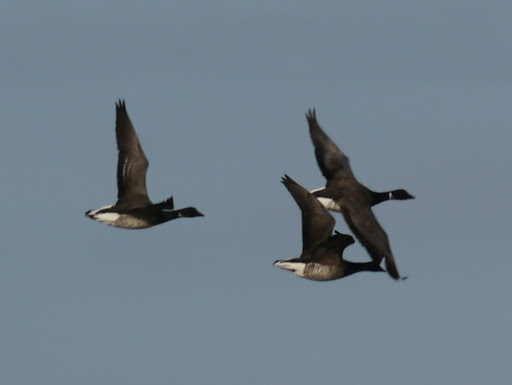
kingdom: Animalia
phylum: Chordata
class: Aves
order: Anseriformes
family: Anatidae
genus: Branta
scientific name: Branta bernicla
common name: Brant goose
